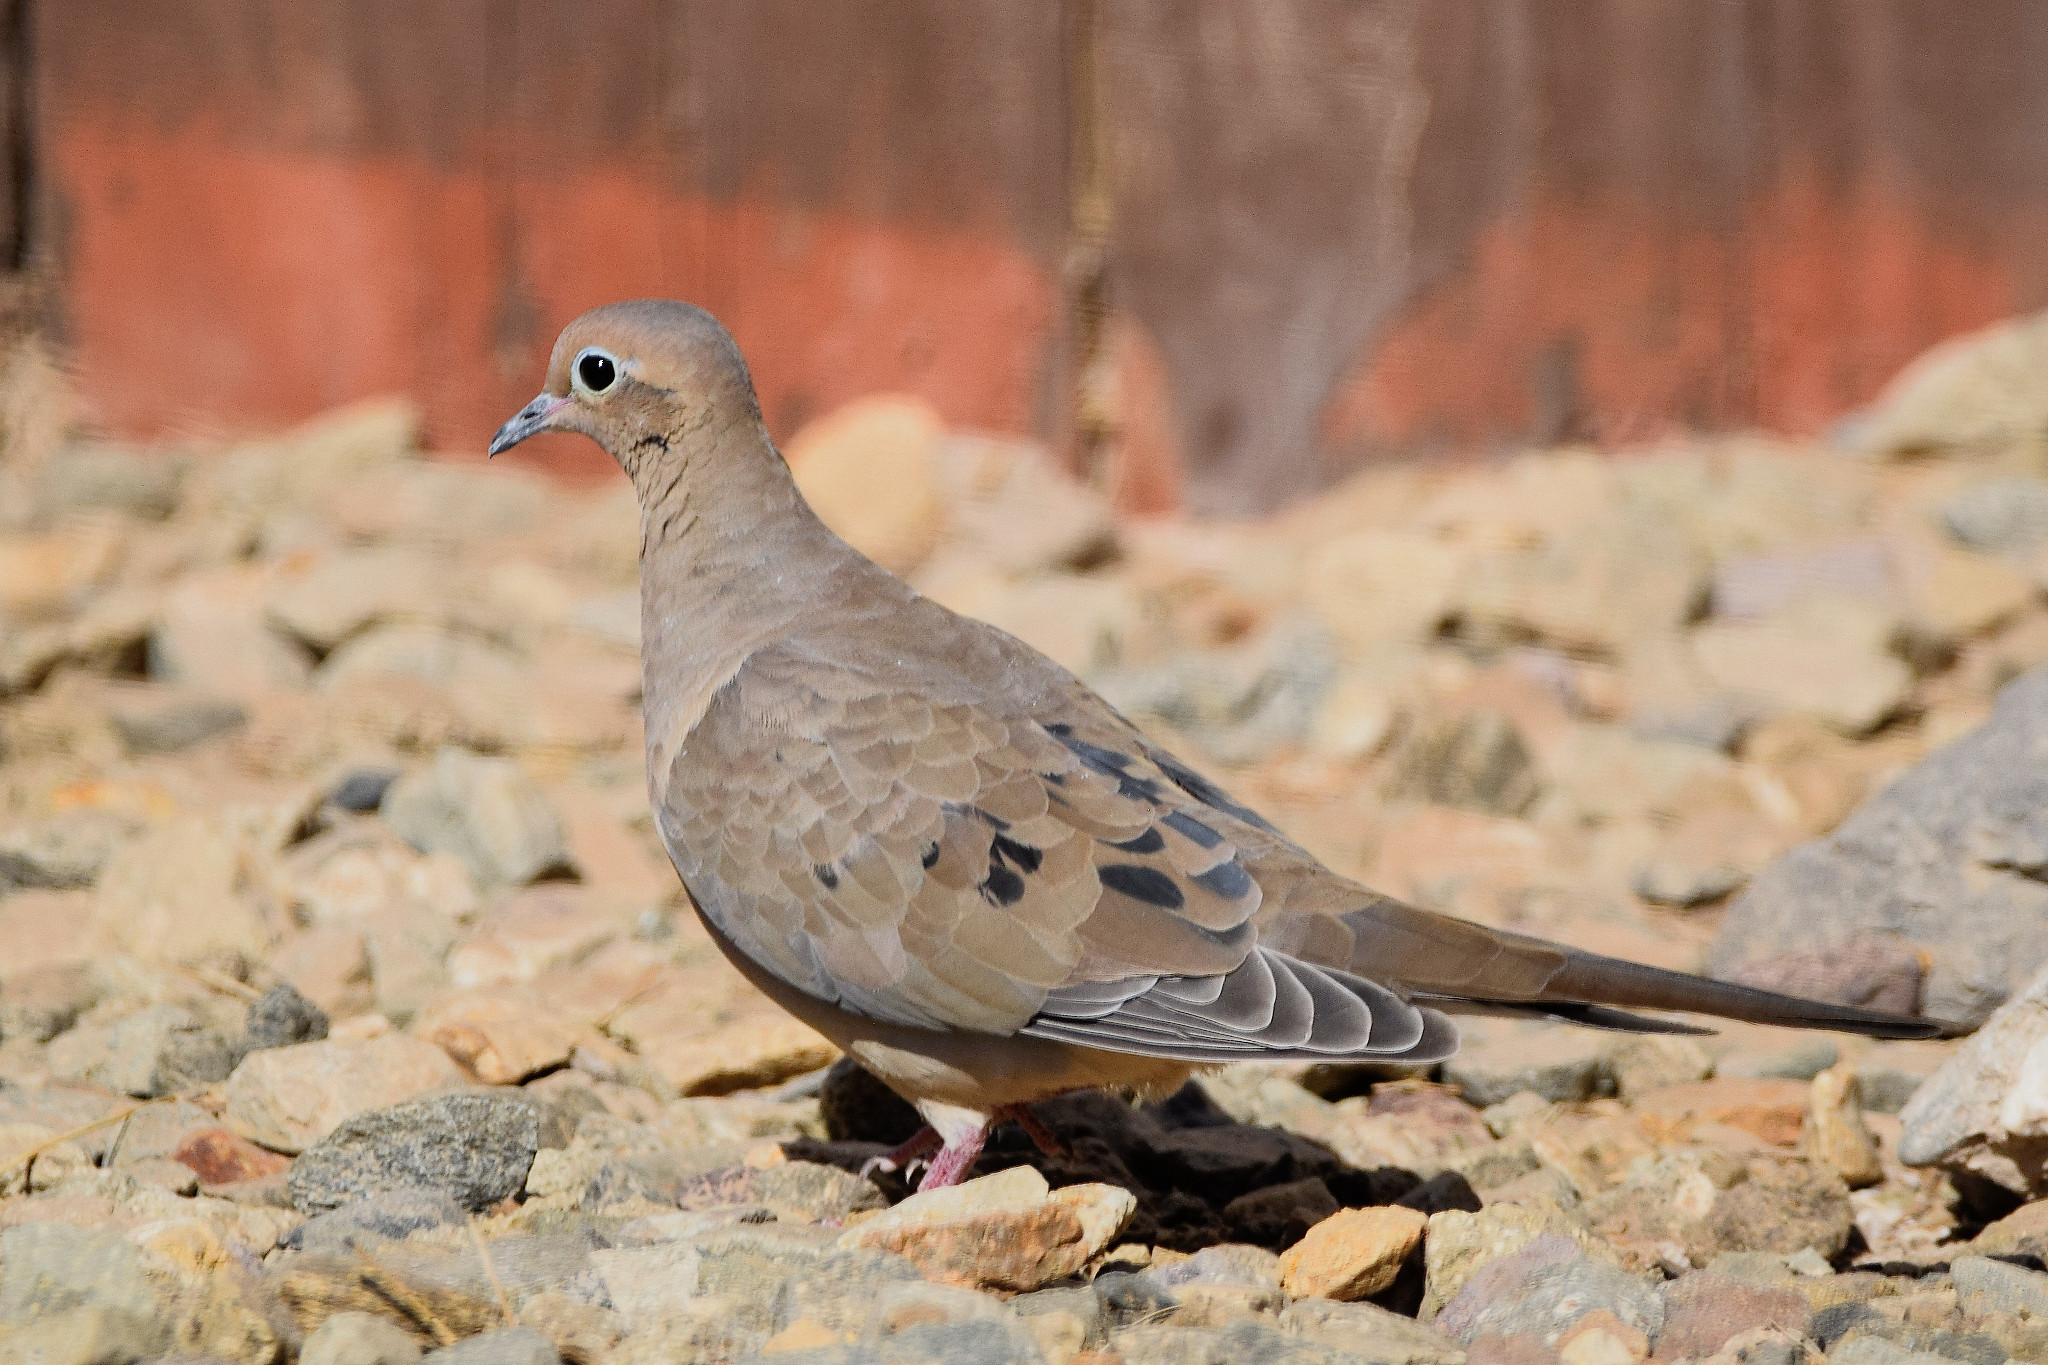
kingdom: Animalia
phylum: Chordata
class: Aves
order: Columbiformes
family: Columbidae
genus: Zenaida
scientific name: Zenaida macroura
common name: Mourning dove
